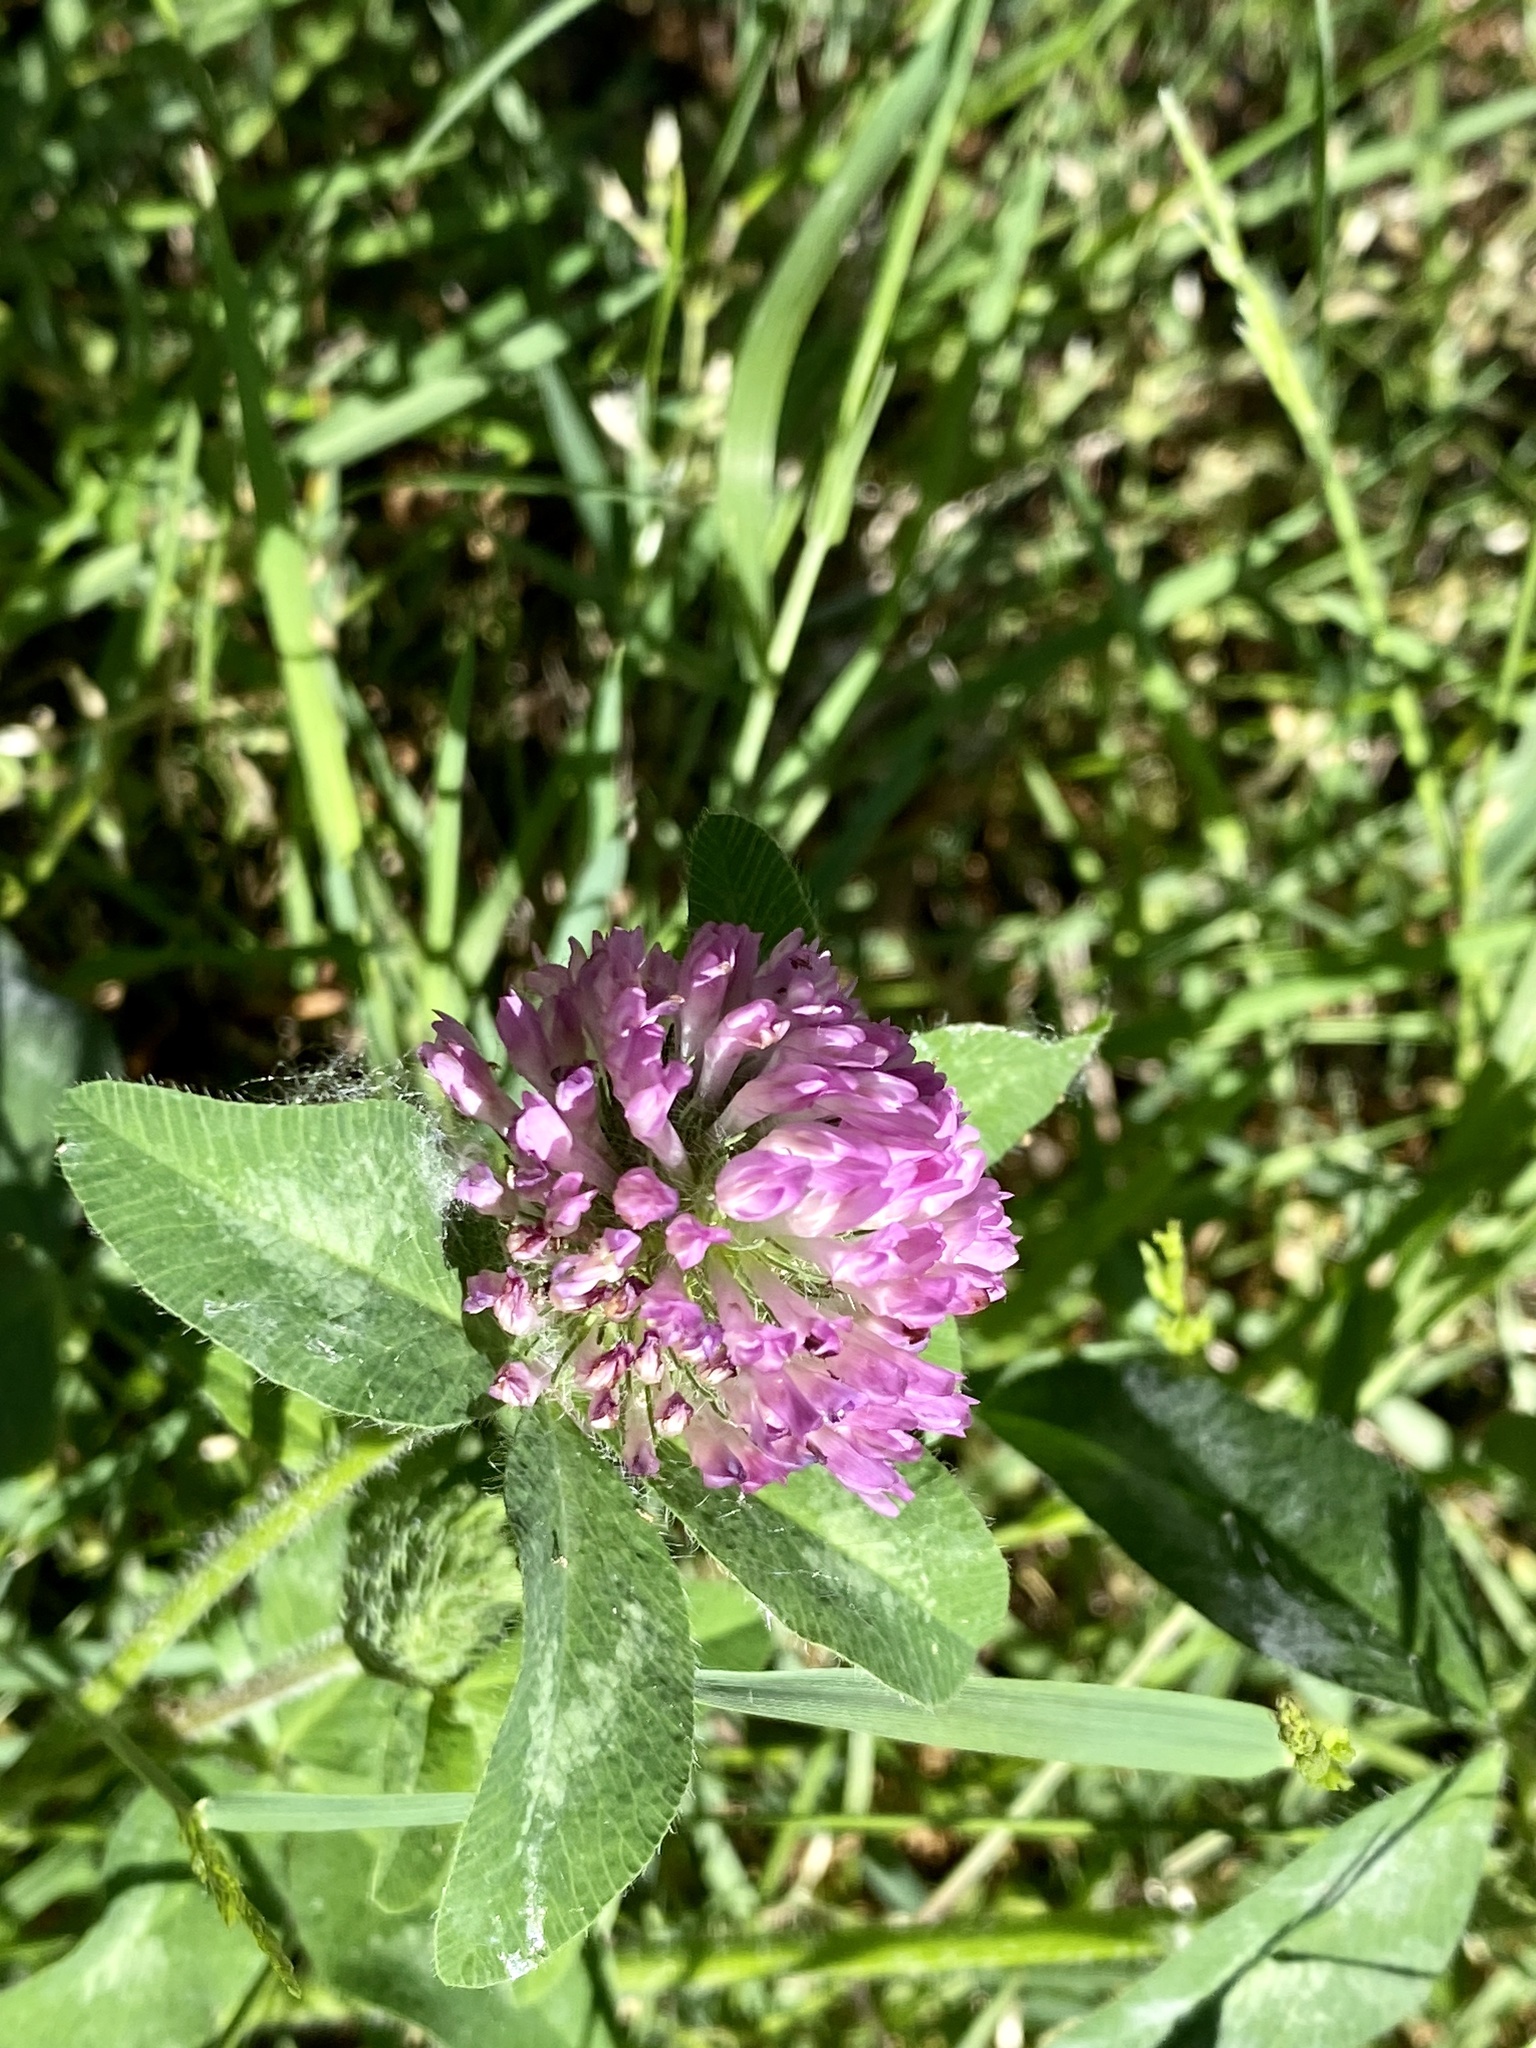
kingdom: Plantae
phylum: Tracheophyta
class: Magnoliopsida
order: Fabales
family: Fabaceae
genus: Trifolium
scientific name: Trifolium pratense
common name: Red clover
